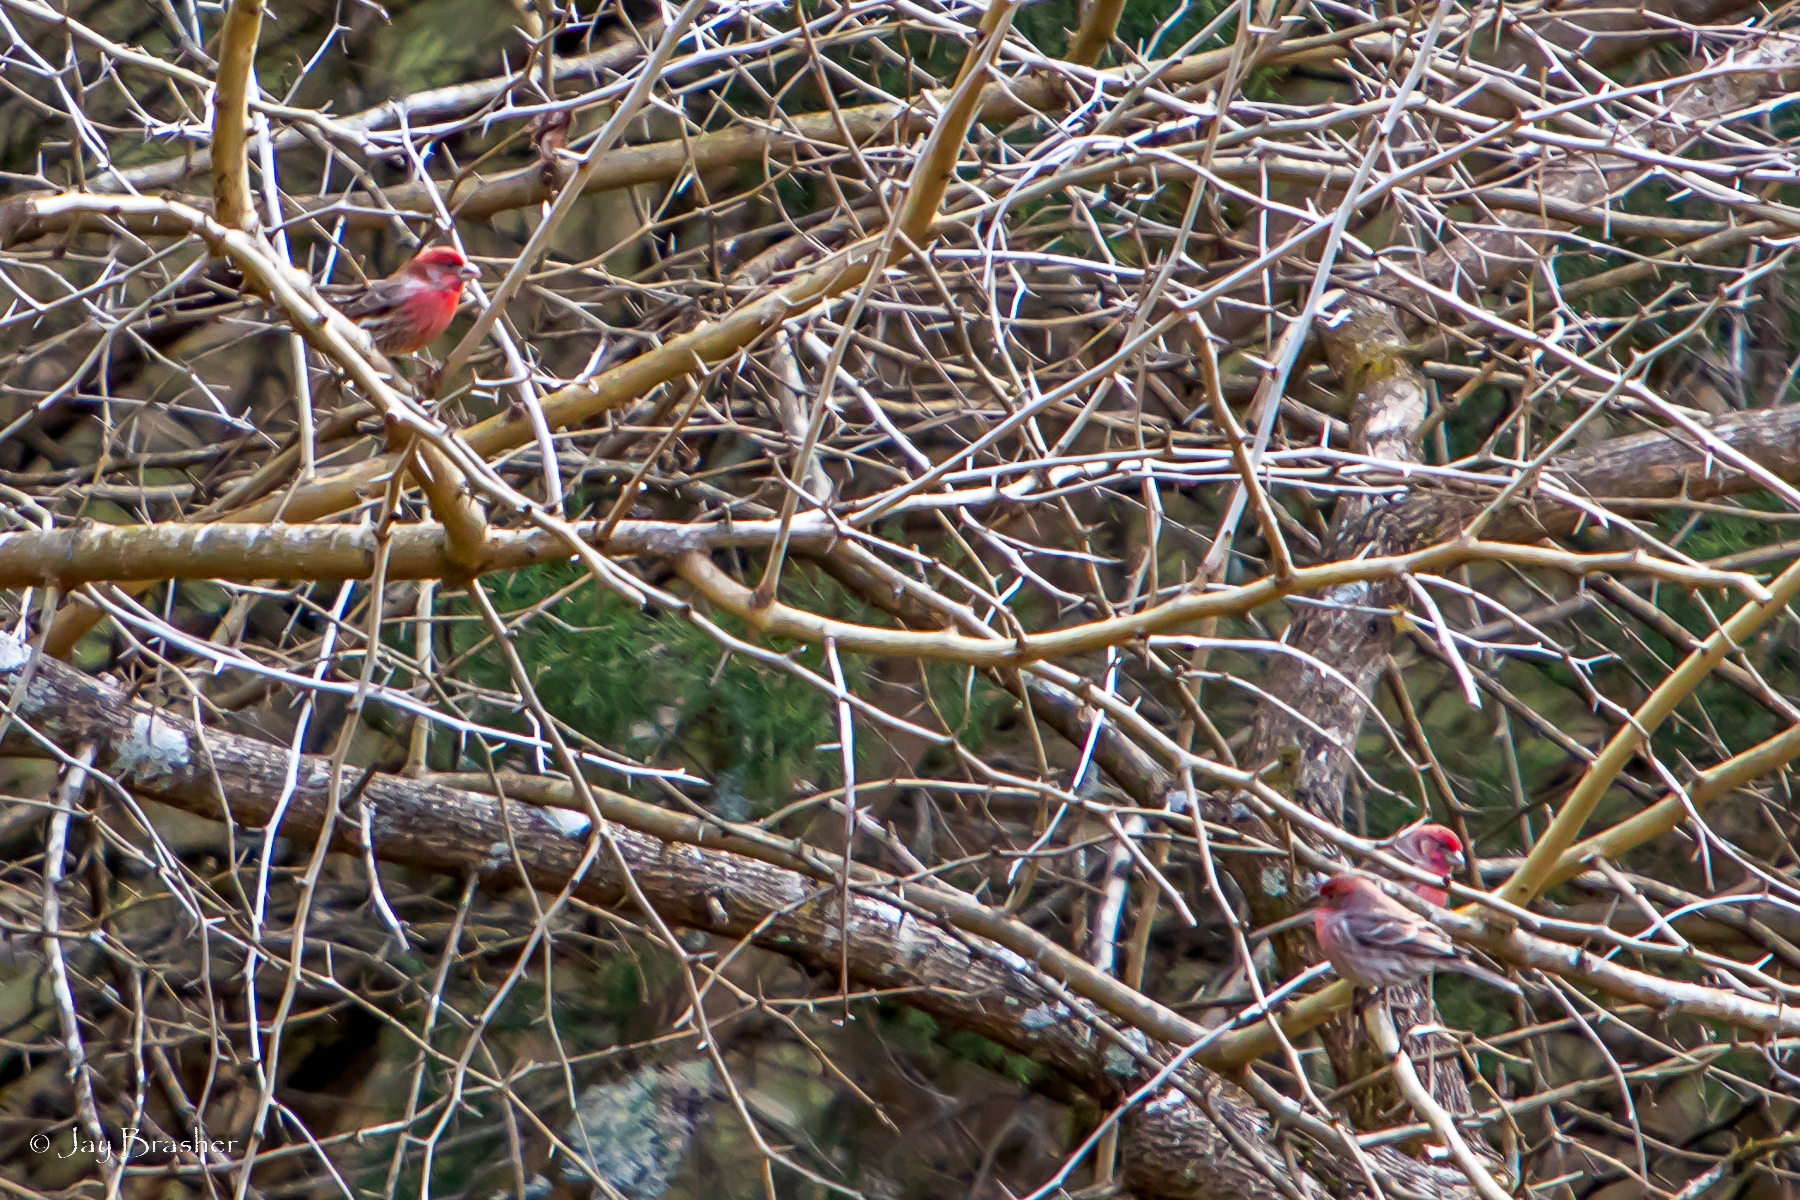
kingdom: Animalia
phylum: Chordata
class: Aves
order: Passeriformes
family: Fringillidae
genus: Haemorhous
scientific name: Haemorhous mexicanus
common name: House finch
